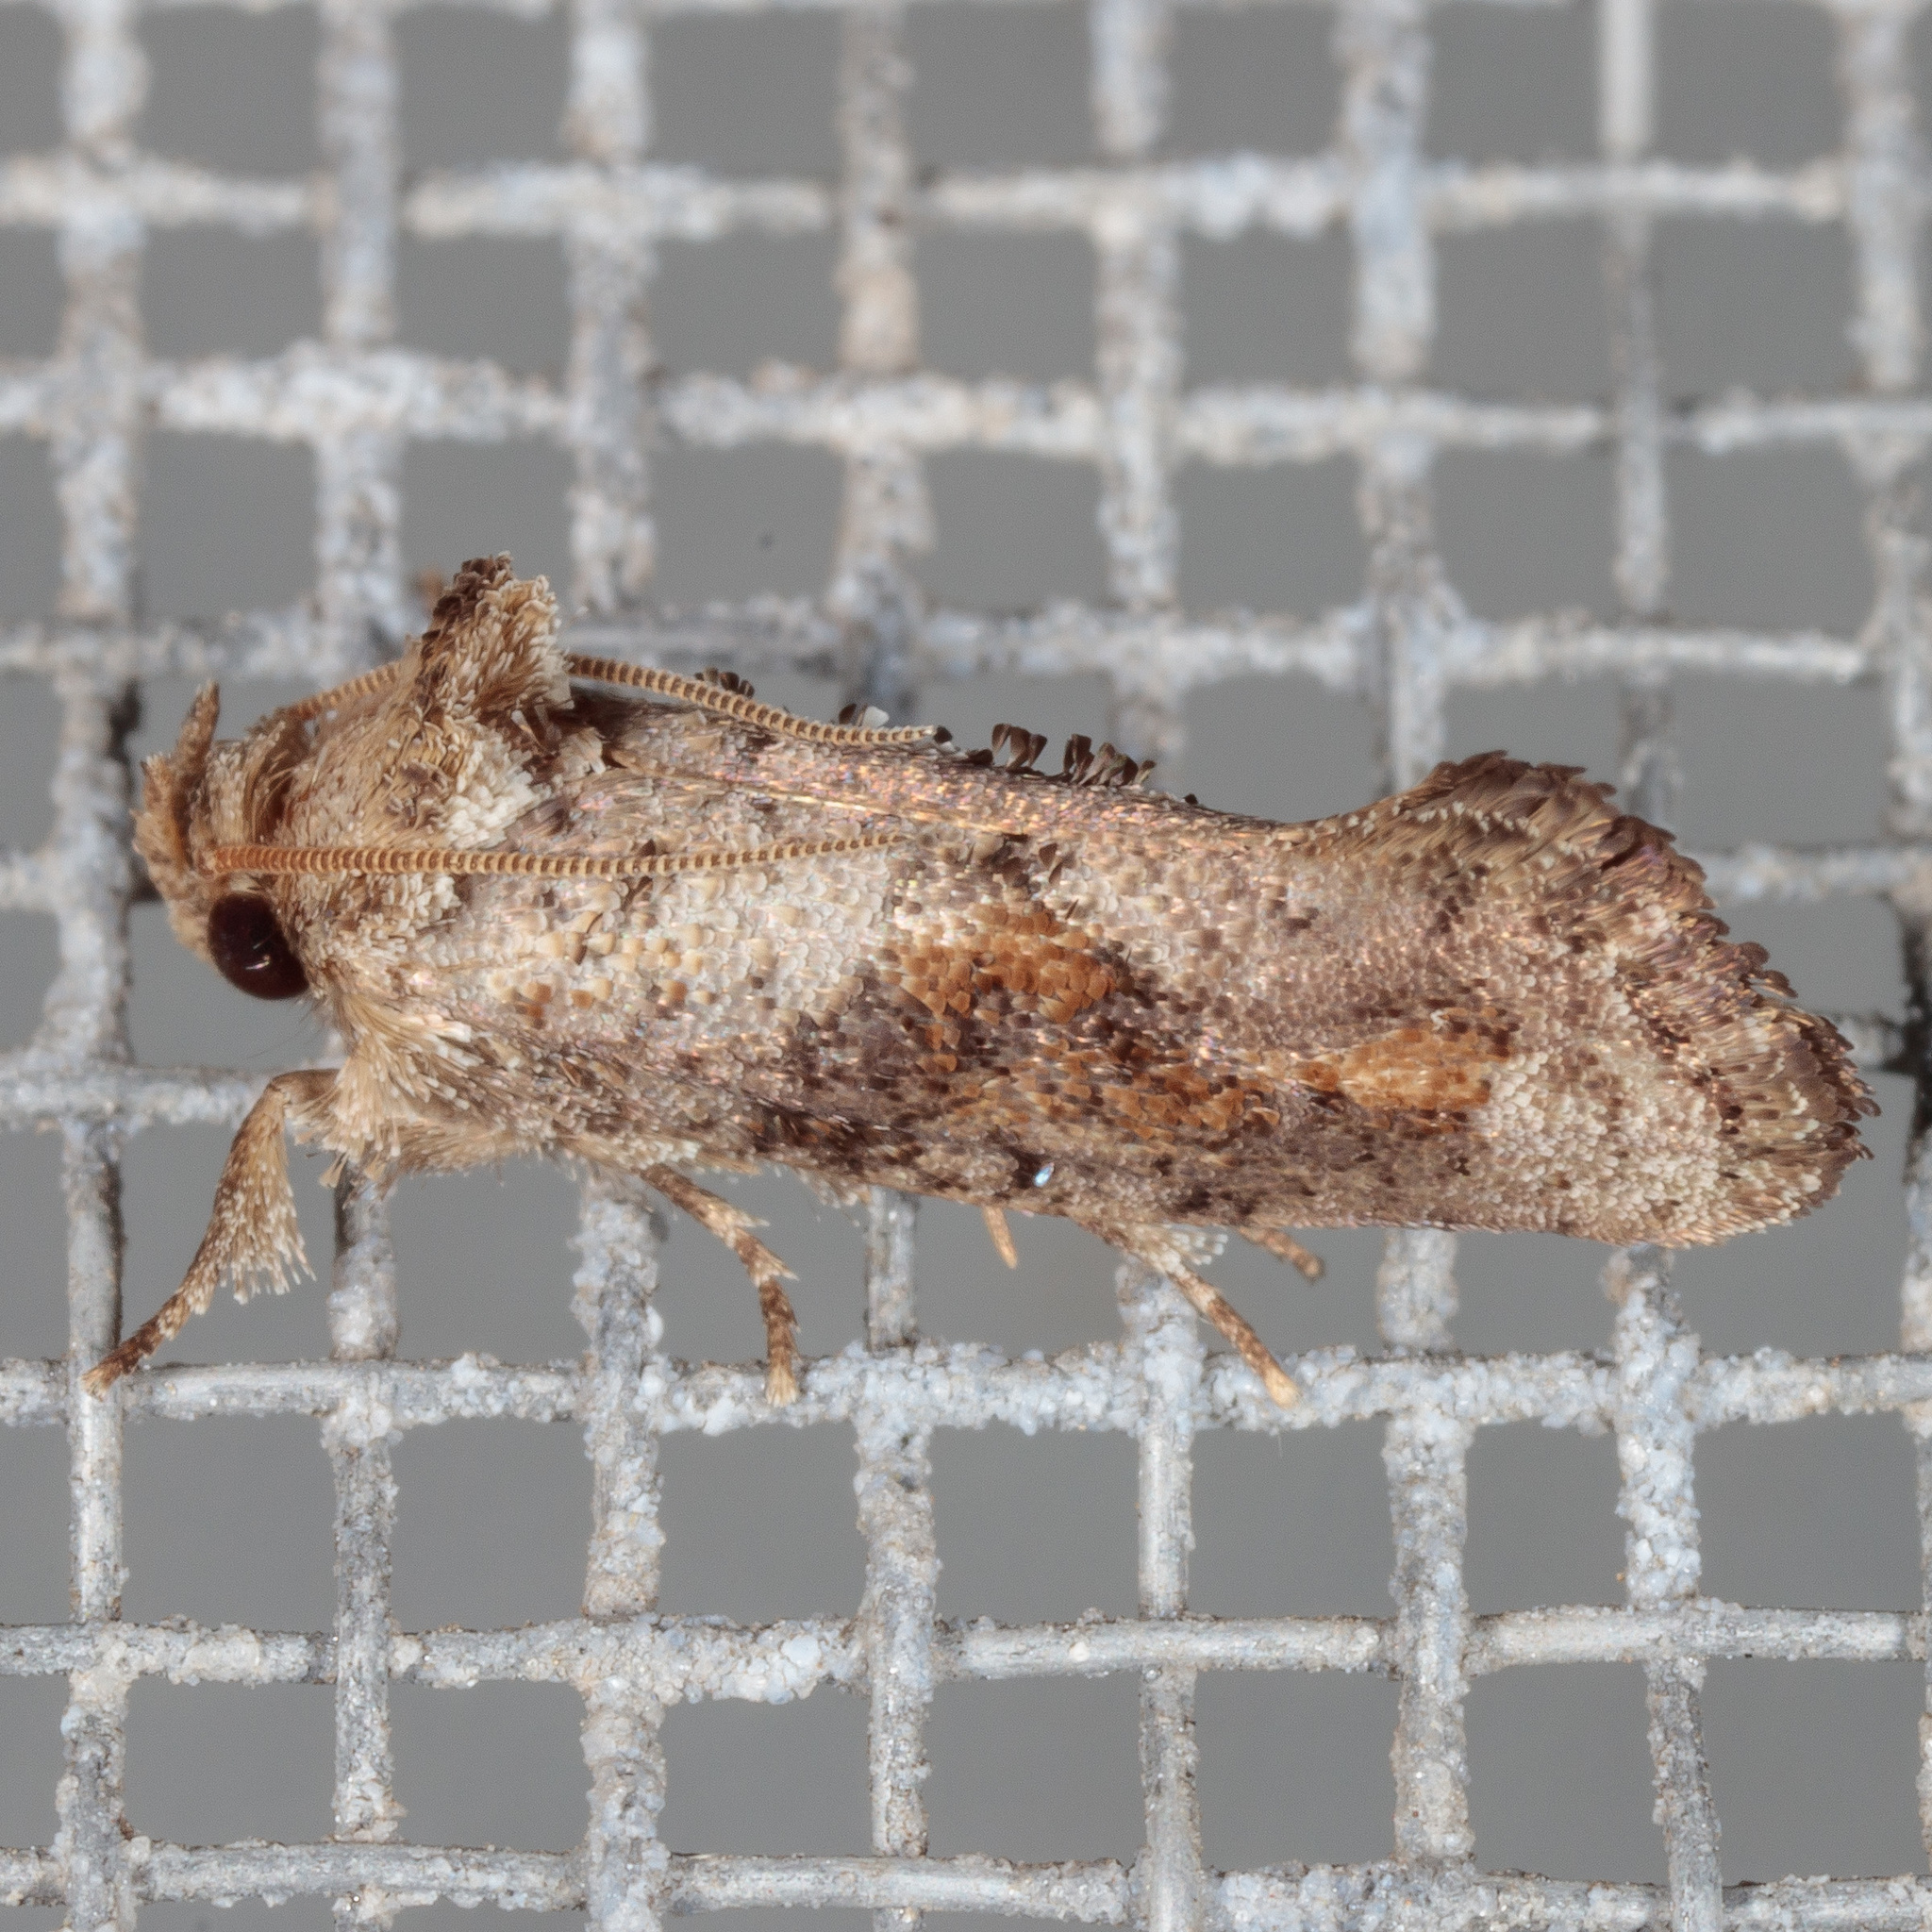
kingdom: Animalia
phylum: Arthropoda
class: Insecta
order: Lepidoptera
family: Tineidae
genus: Acrolophus
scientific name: Acrolophus piger
